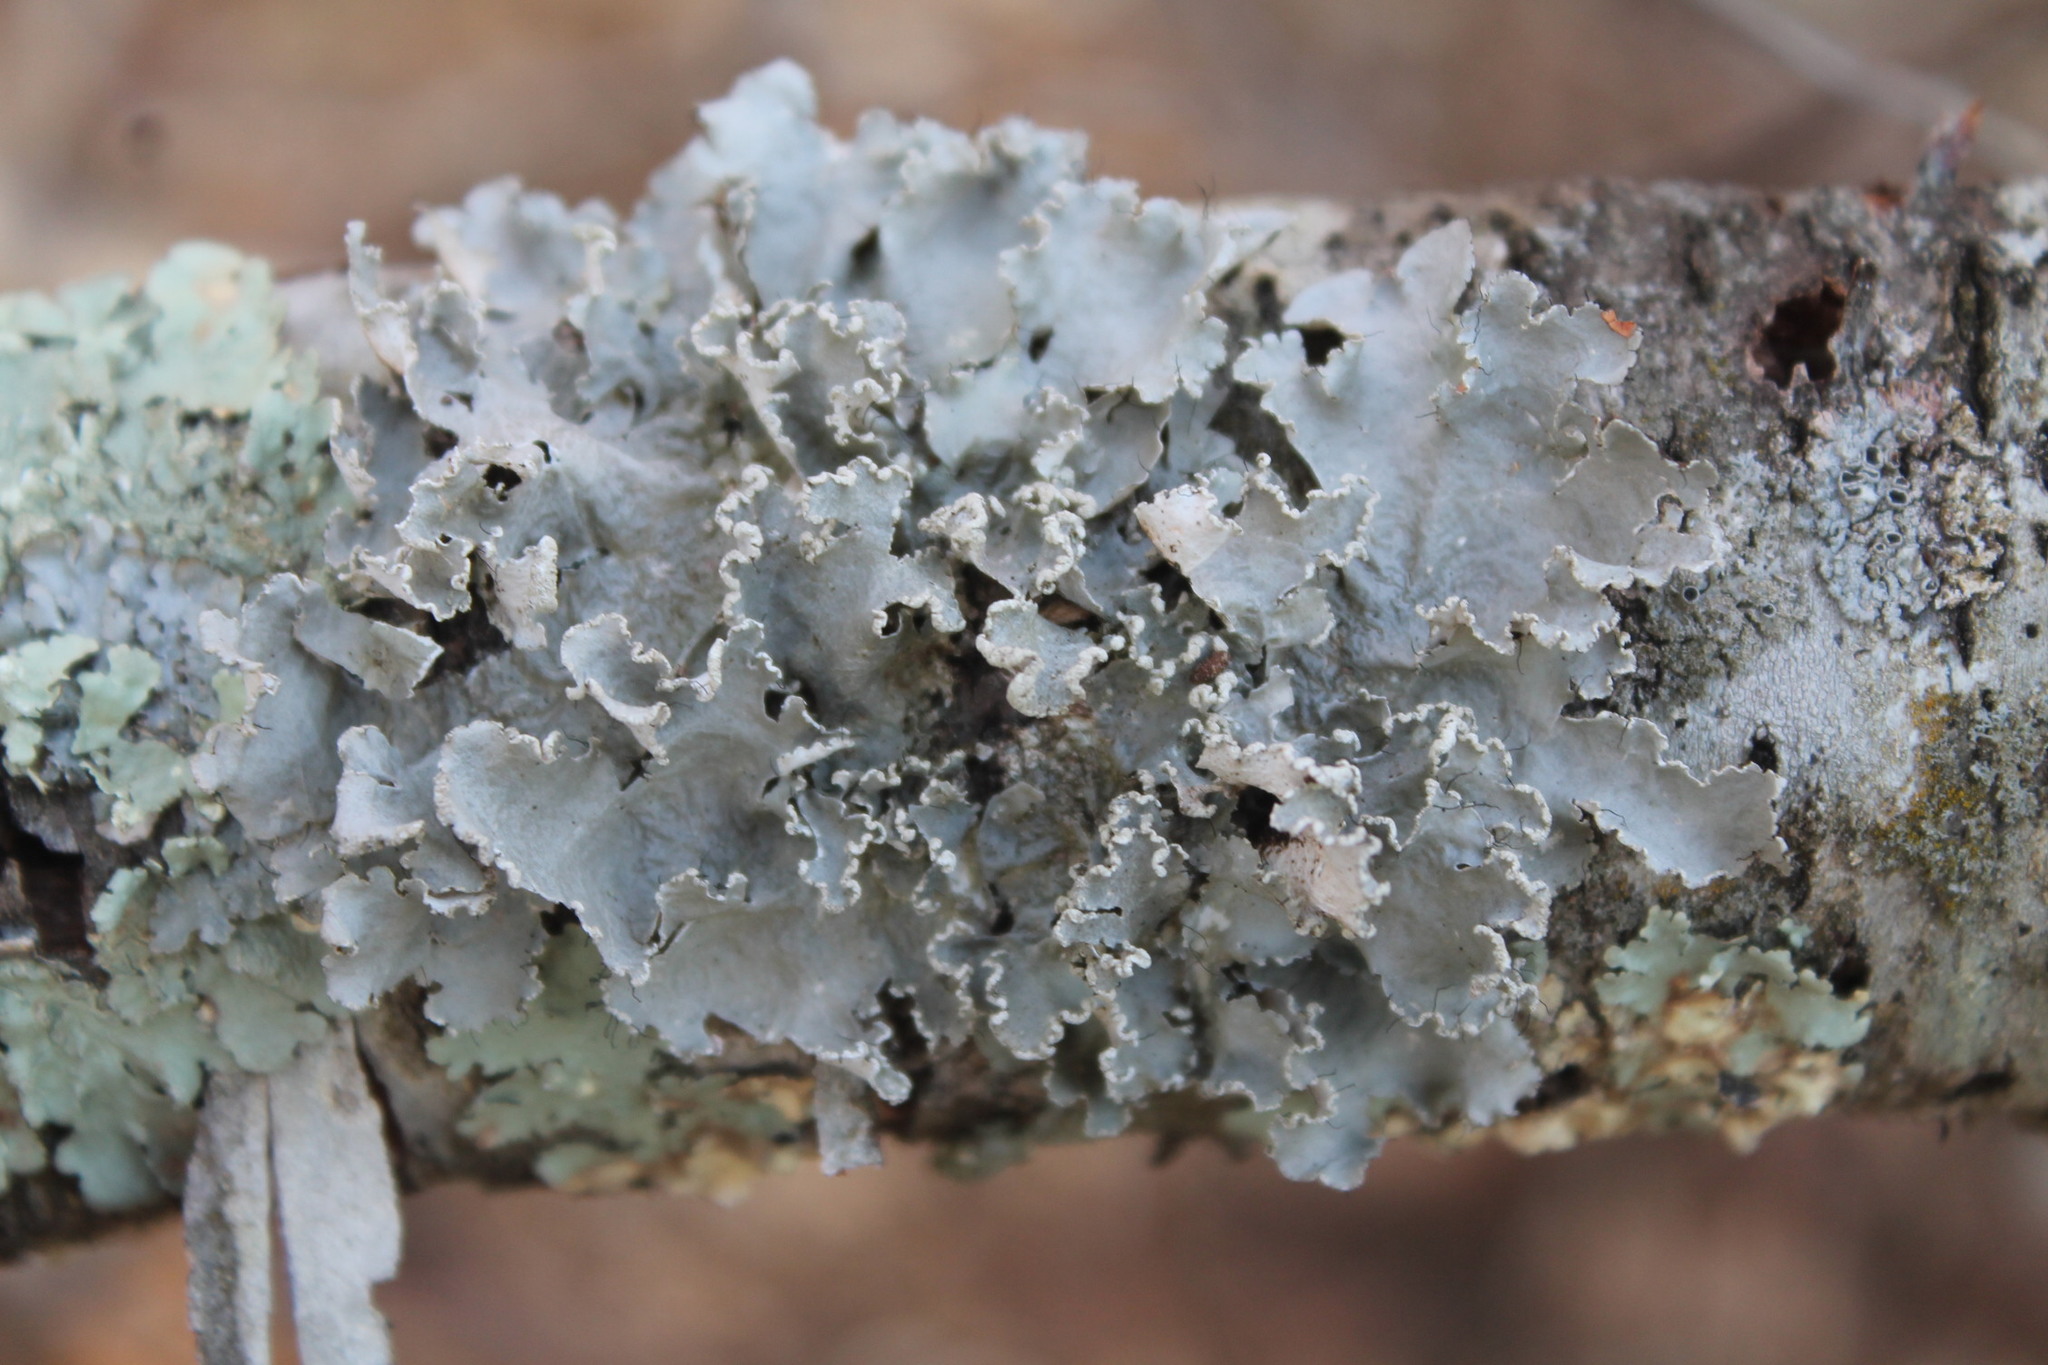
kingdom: Fungi
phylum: Ascomycota
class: Lecanoromycetes
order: Lecanorales
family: Parmeliaceae
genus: Parmotrema
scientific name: Parmotrema hypotropum
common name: Powdered ruffle lichen
